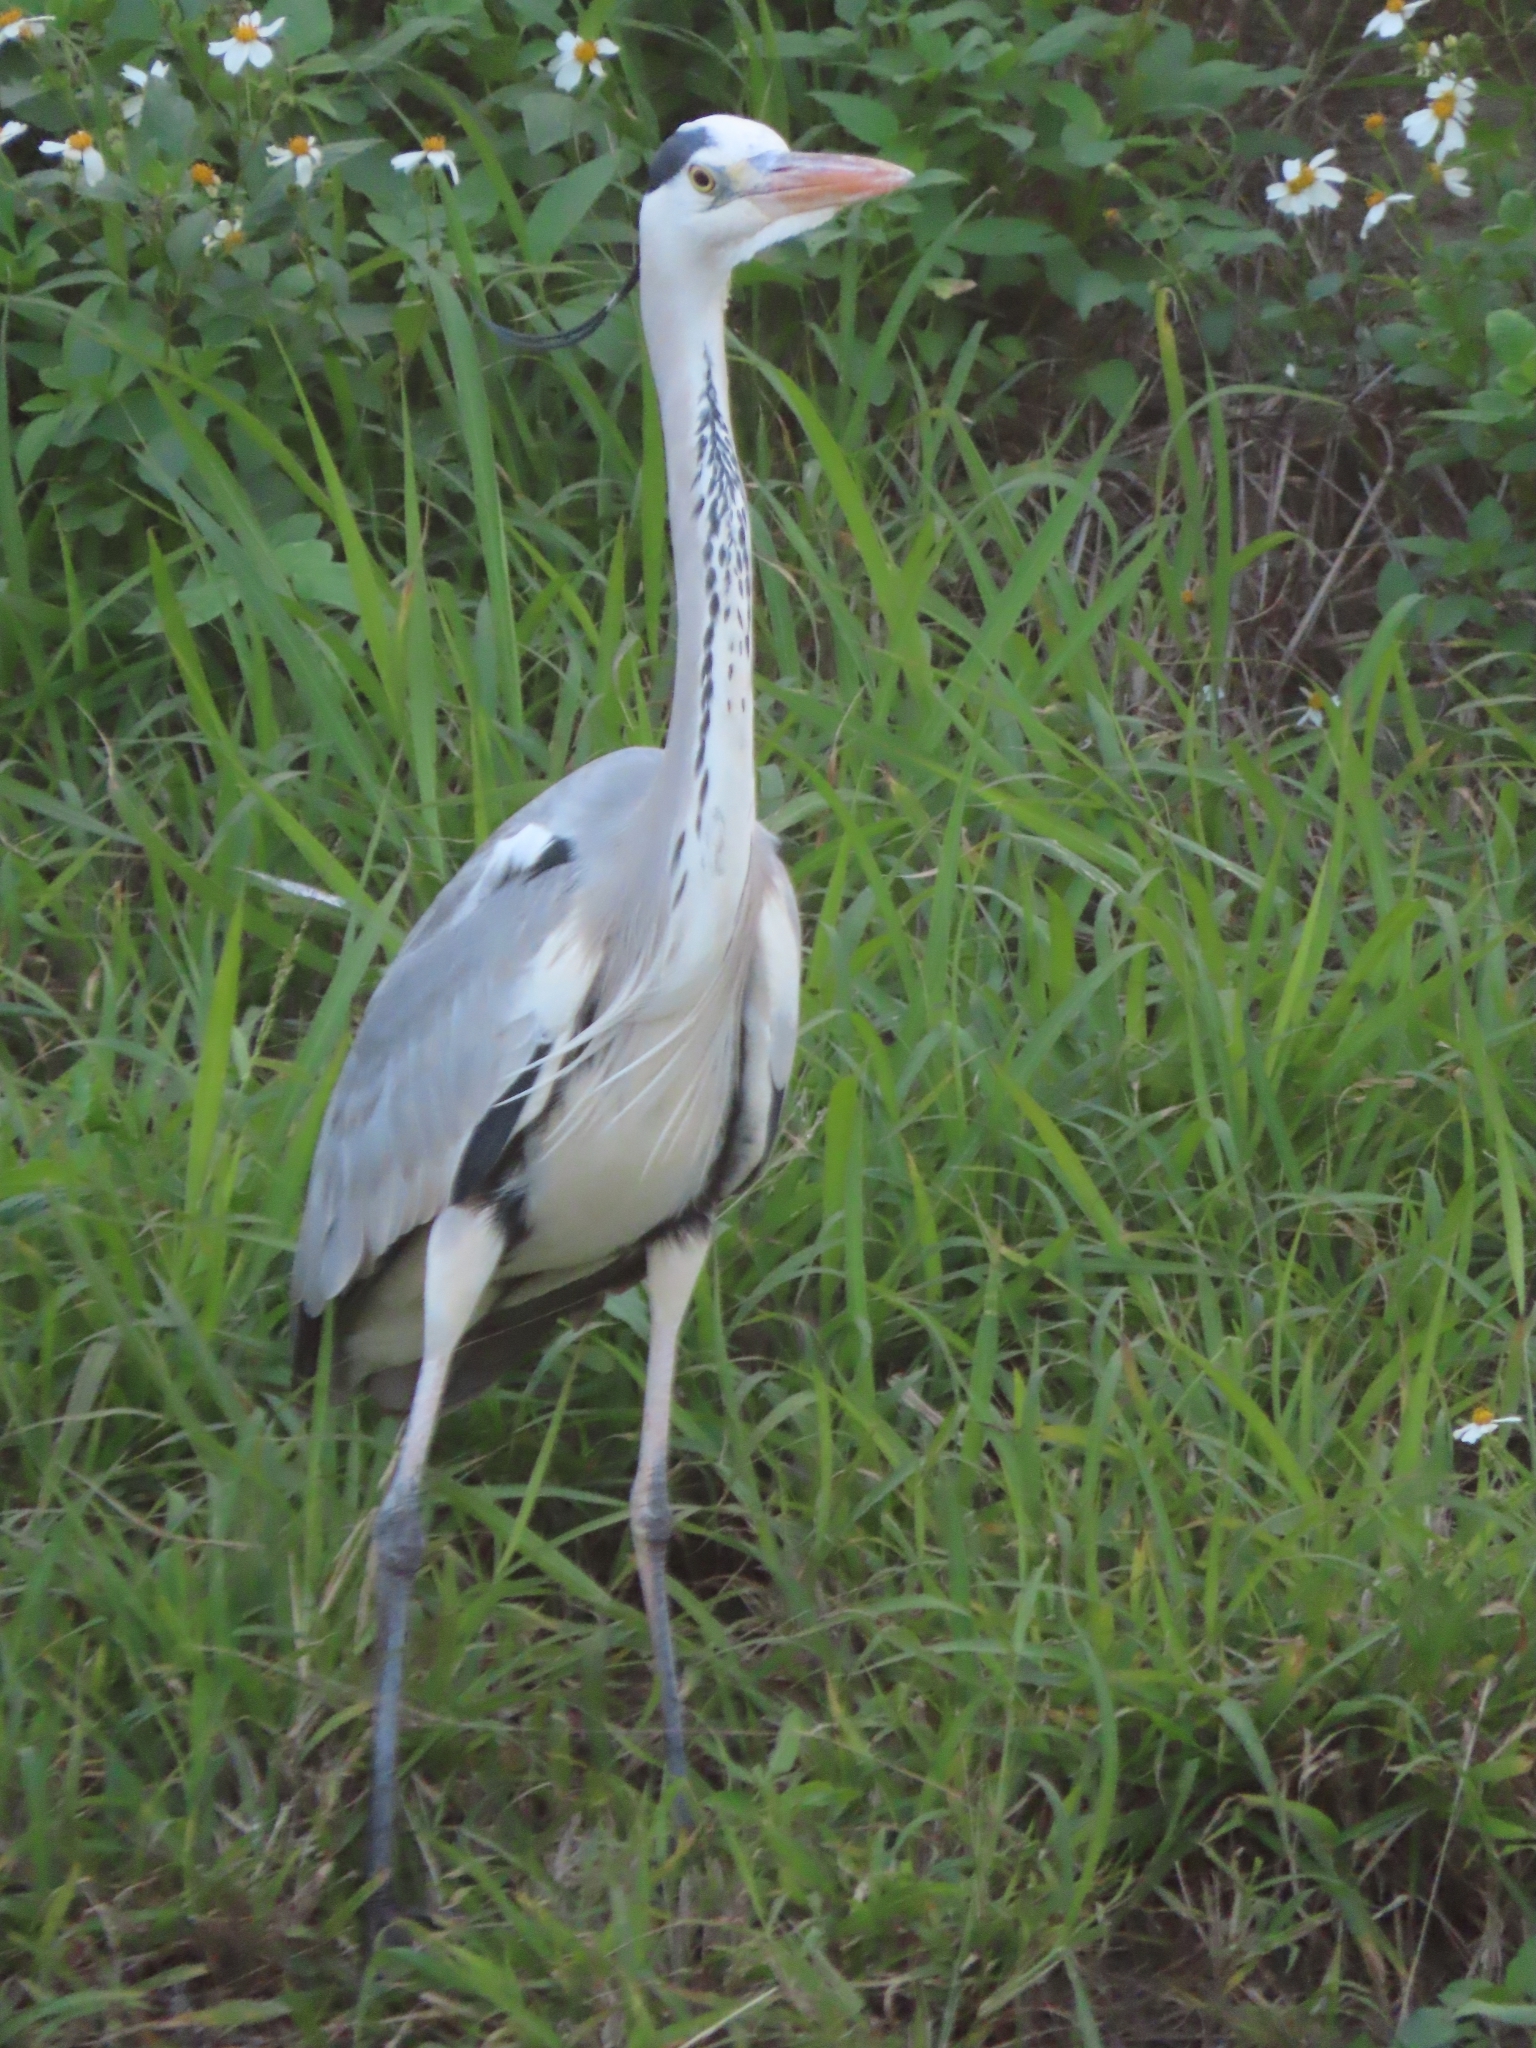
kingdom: Animalia
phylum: Chordata
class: Aves
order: Pelecaniformes
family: Ardeidae
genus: Ardea
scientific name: Ardea cinerea
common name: Grey heron
